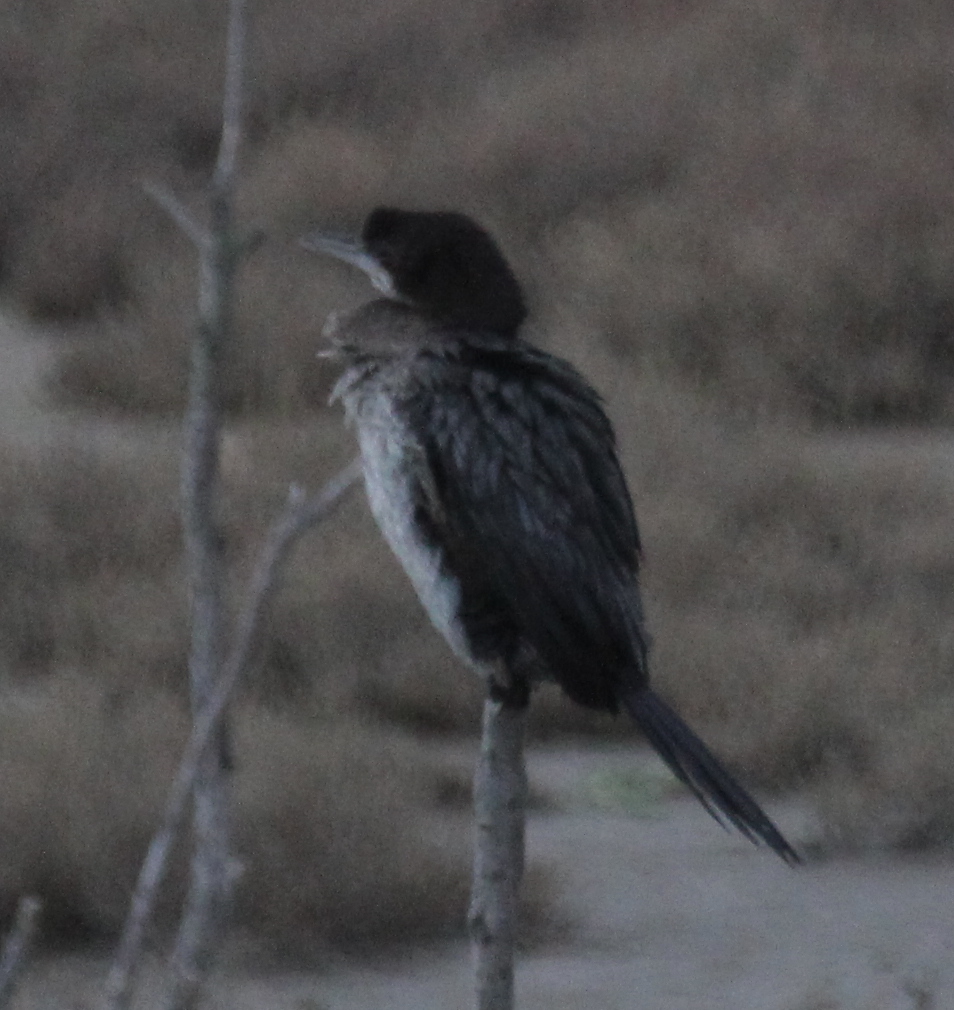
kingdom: Animalia
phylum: Chordata
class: Aves
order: Suliformes
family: Phalacrocoracidae
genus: Microcarbo
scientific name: Microcarbo pygmaeus
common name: Pygmy cormorant
